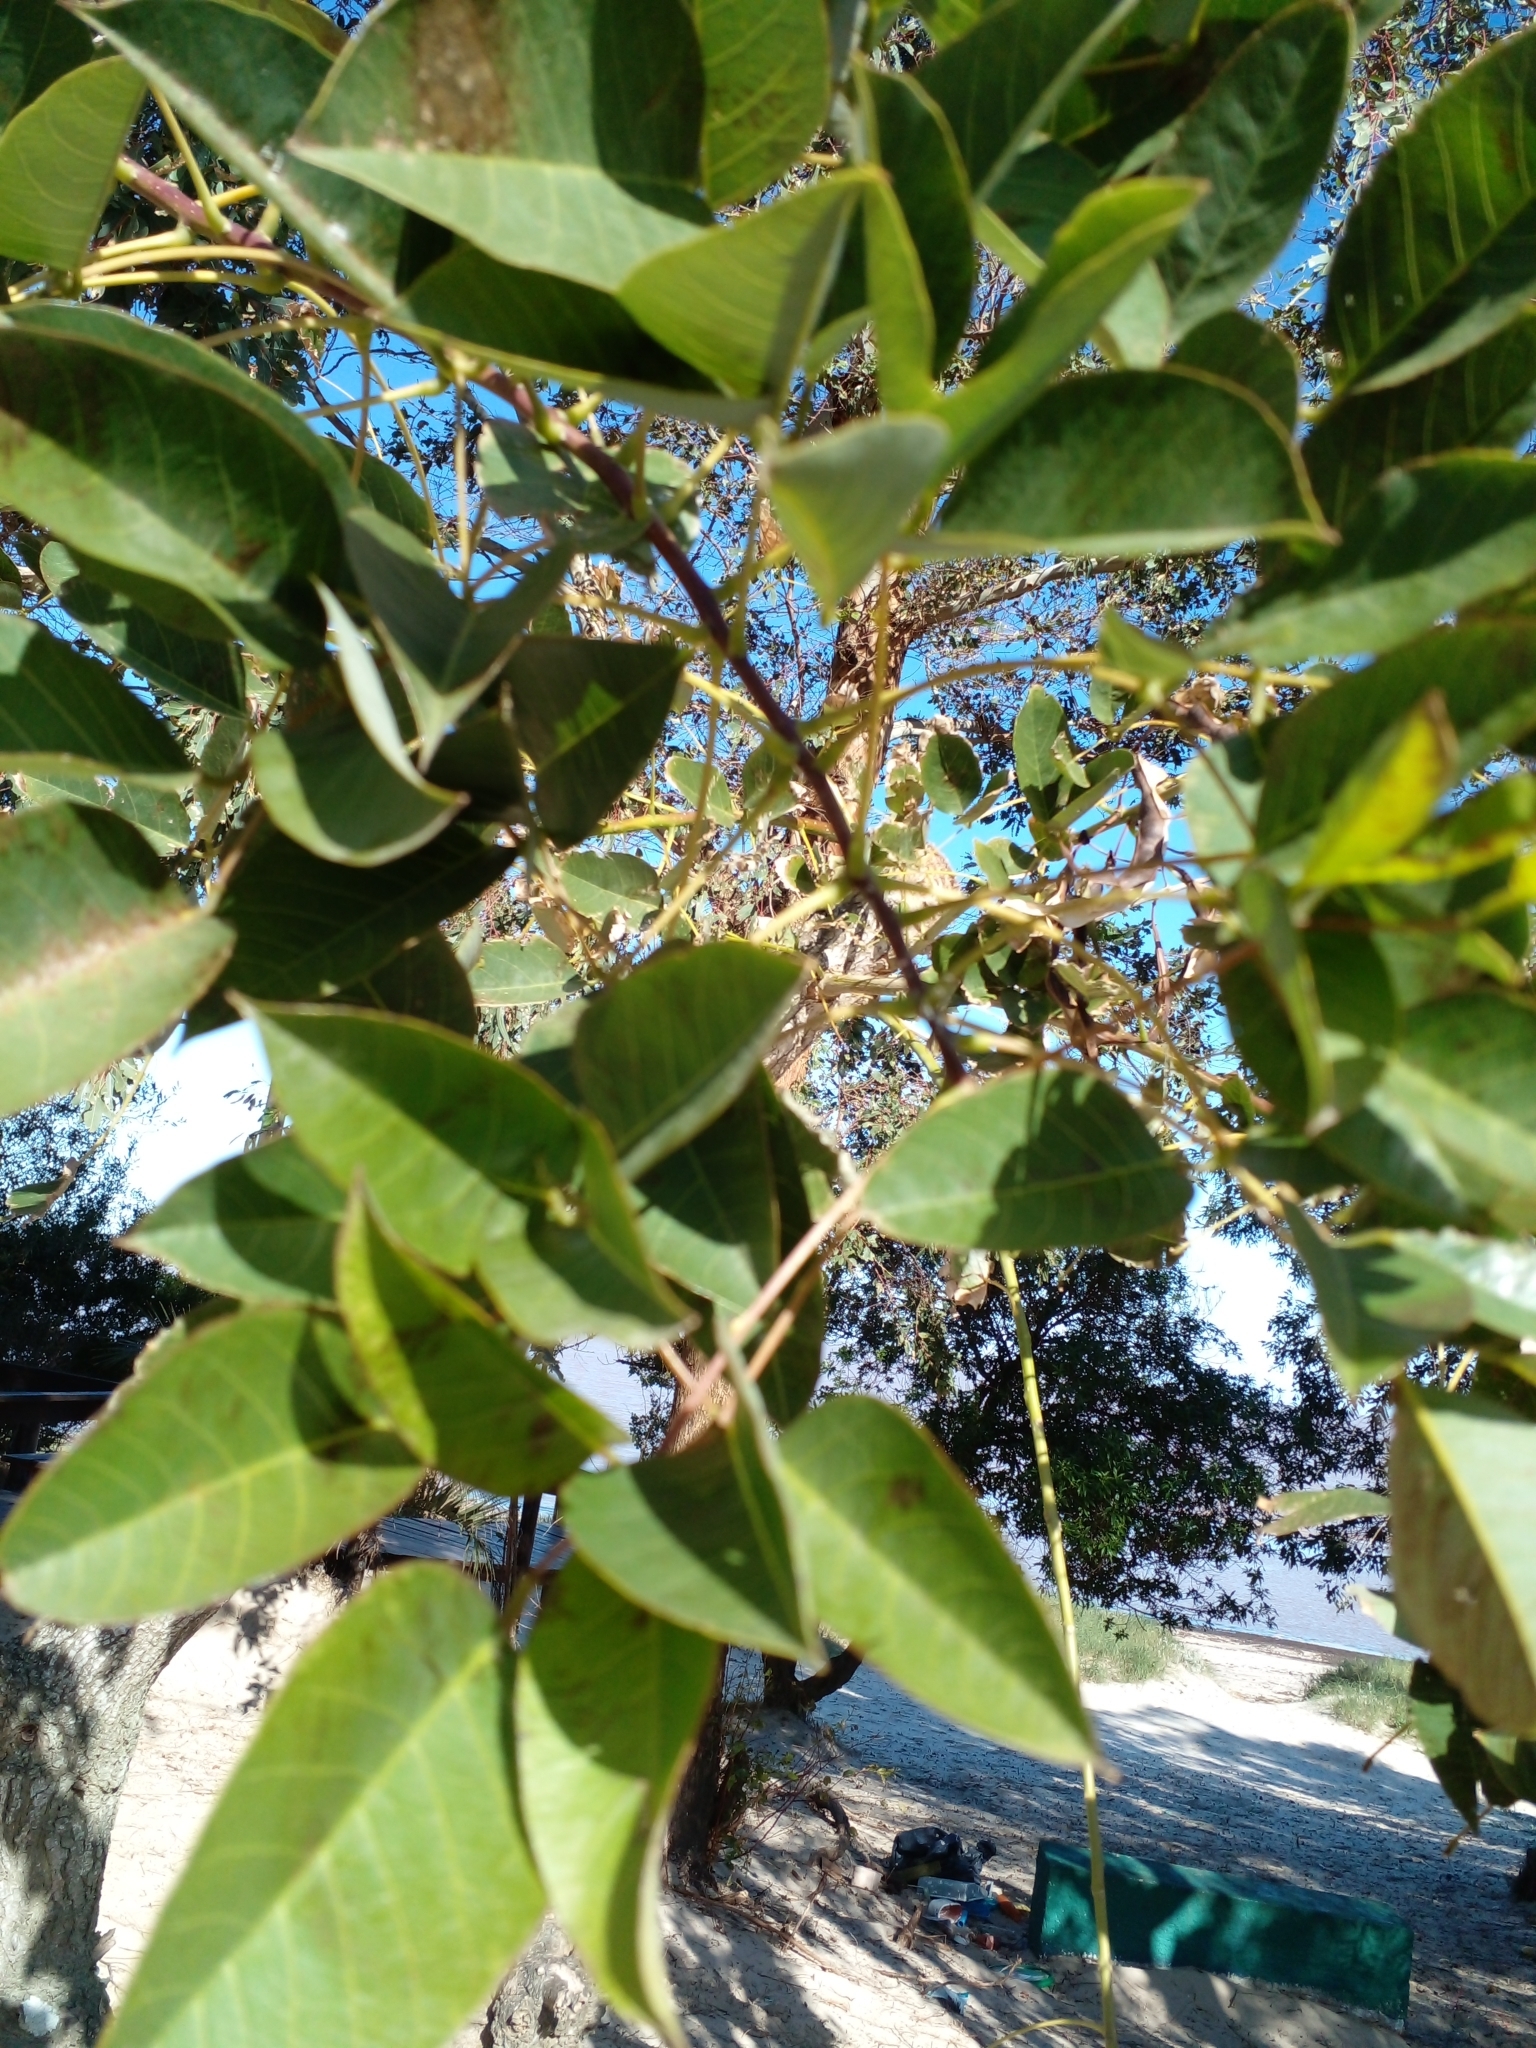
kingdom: Plantae
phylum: Tracheophyta
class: Magnoliopsida
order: Fabales
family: Fabaceae
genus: Erythrina
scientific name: Erythrina crista-galli
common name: Cockspur coral tree
